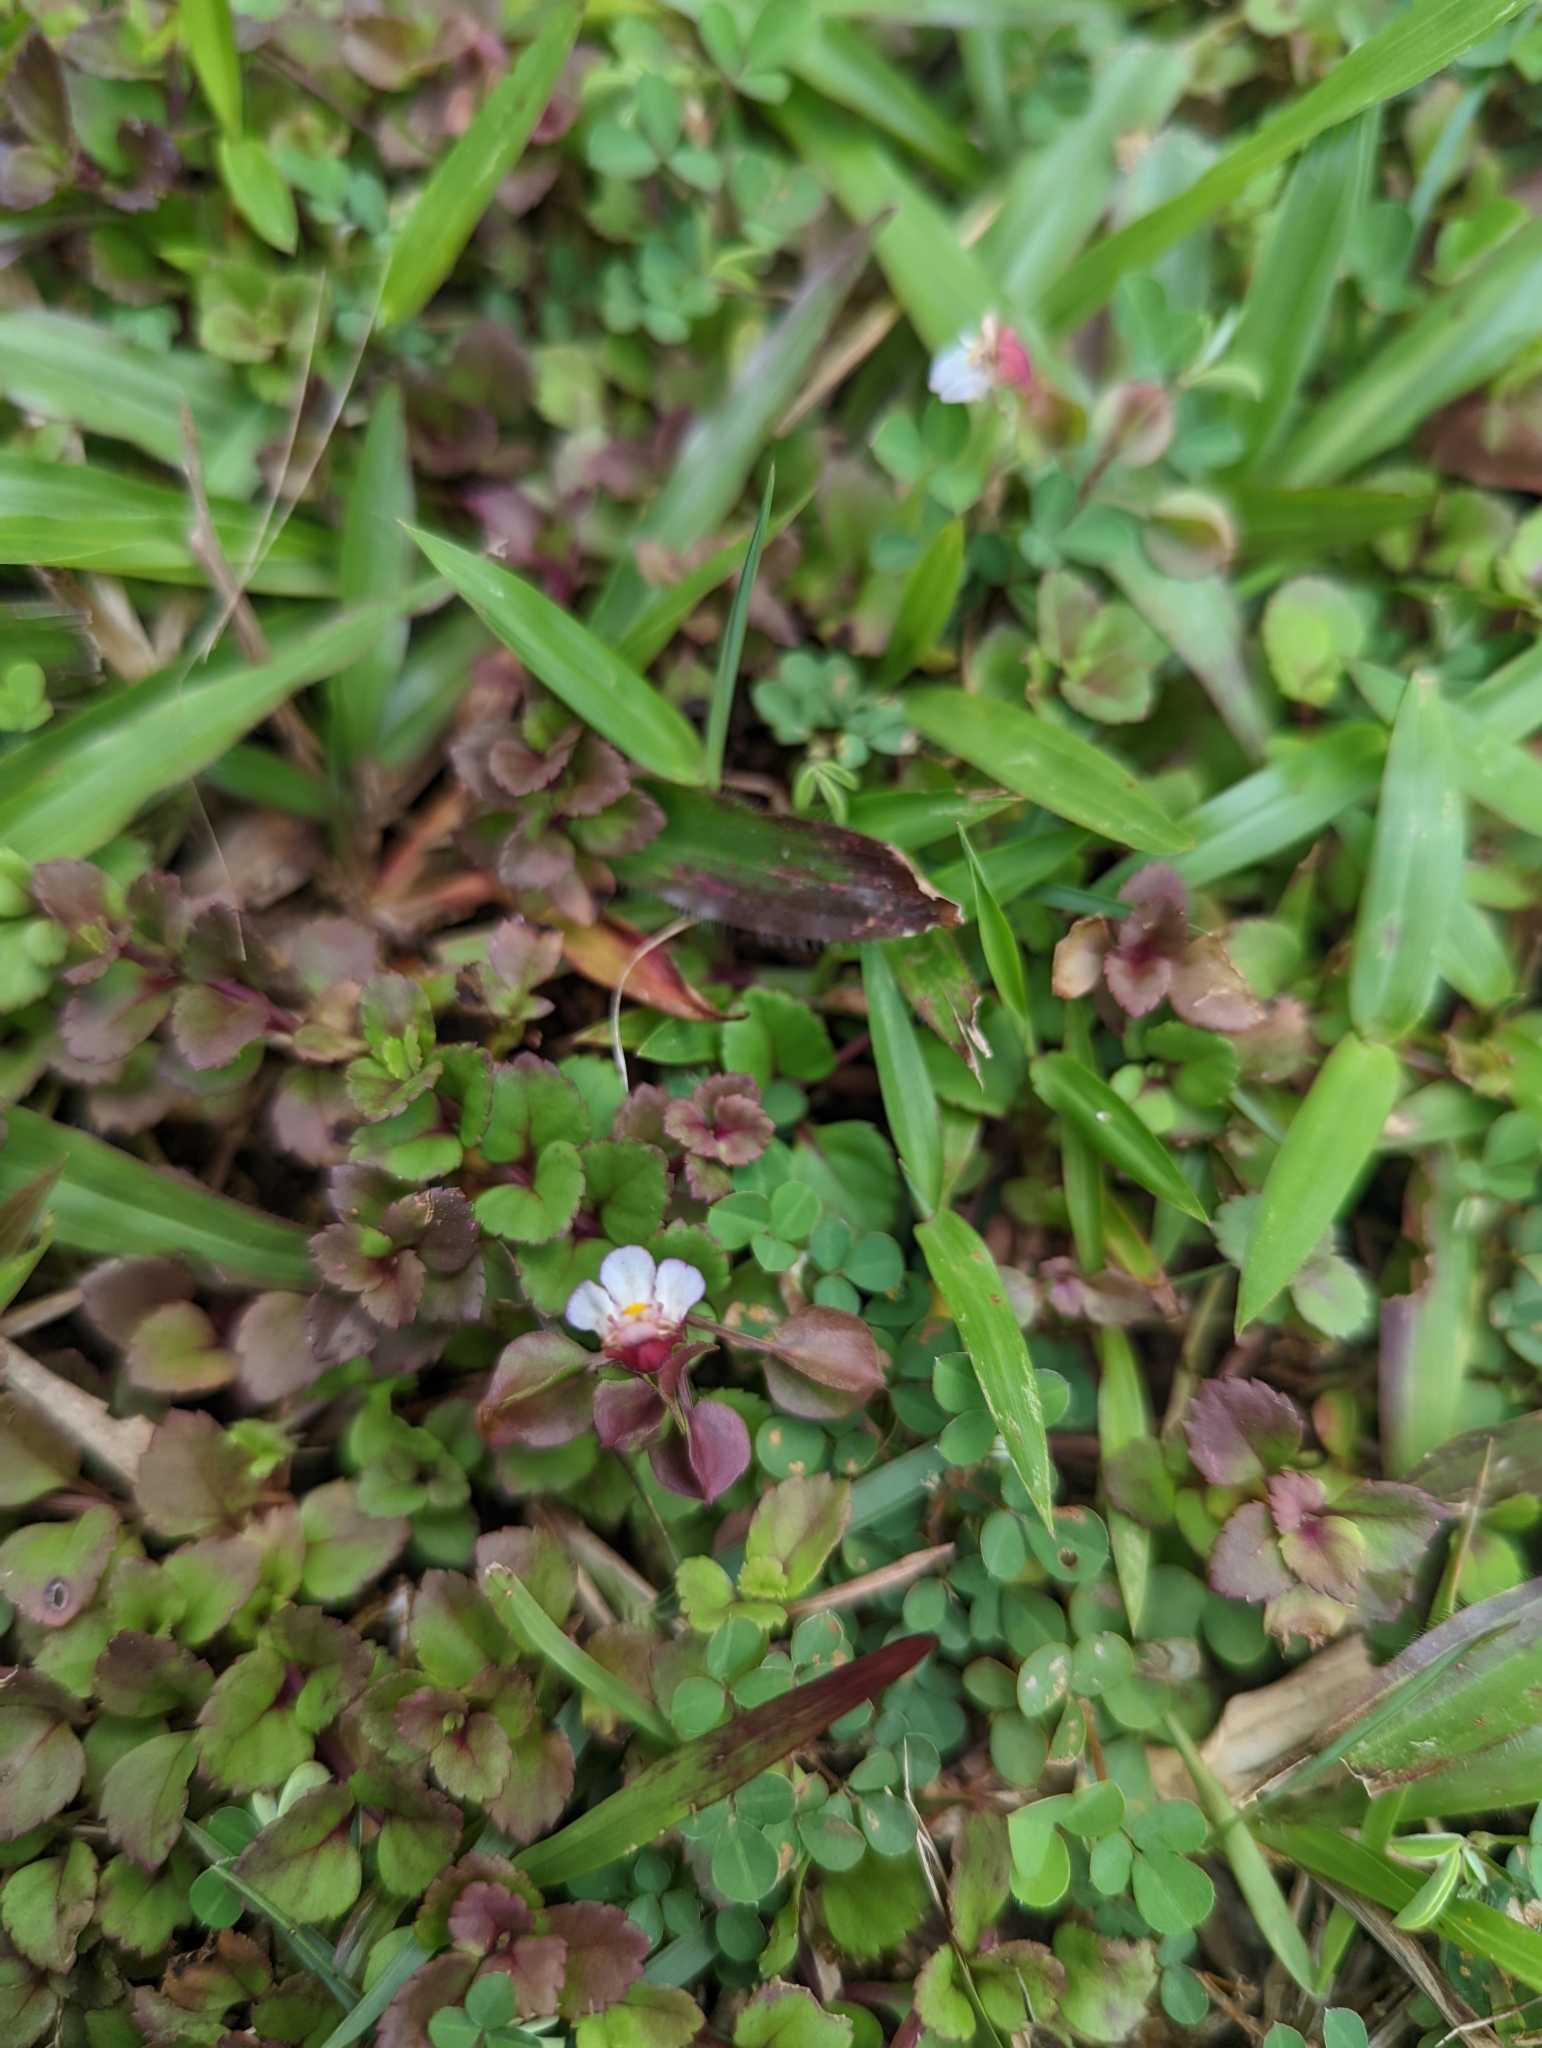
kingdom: Plantae
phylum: Tracheophyta
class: Magnoliopsida
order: Lamiales
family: Linderniaceae
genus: Legazpia
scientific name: Legazpia polygonoides
